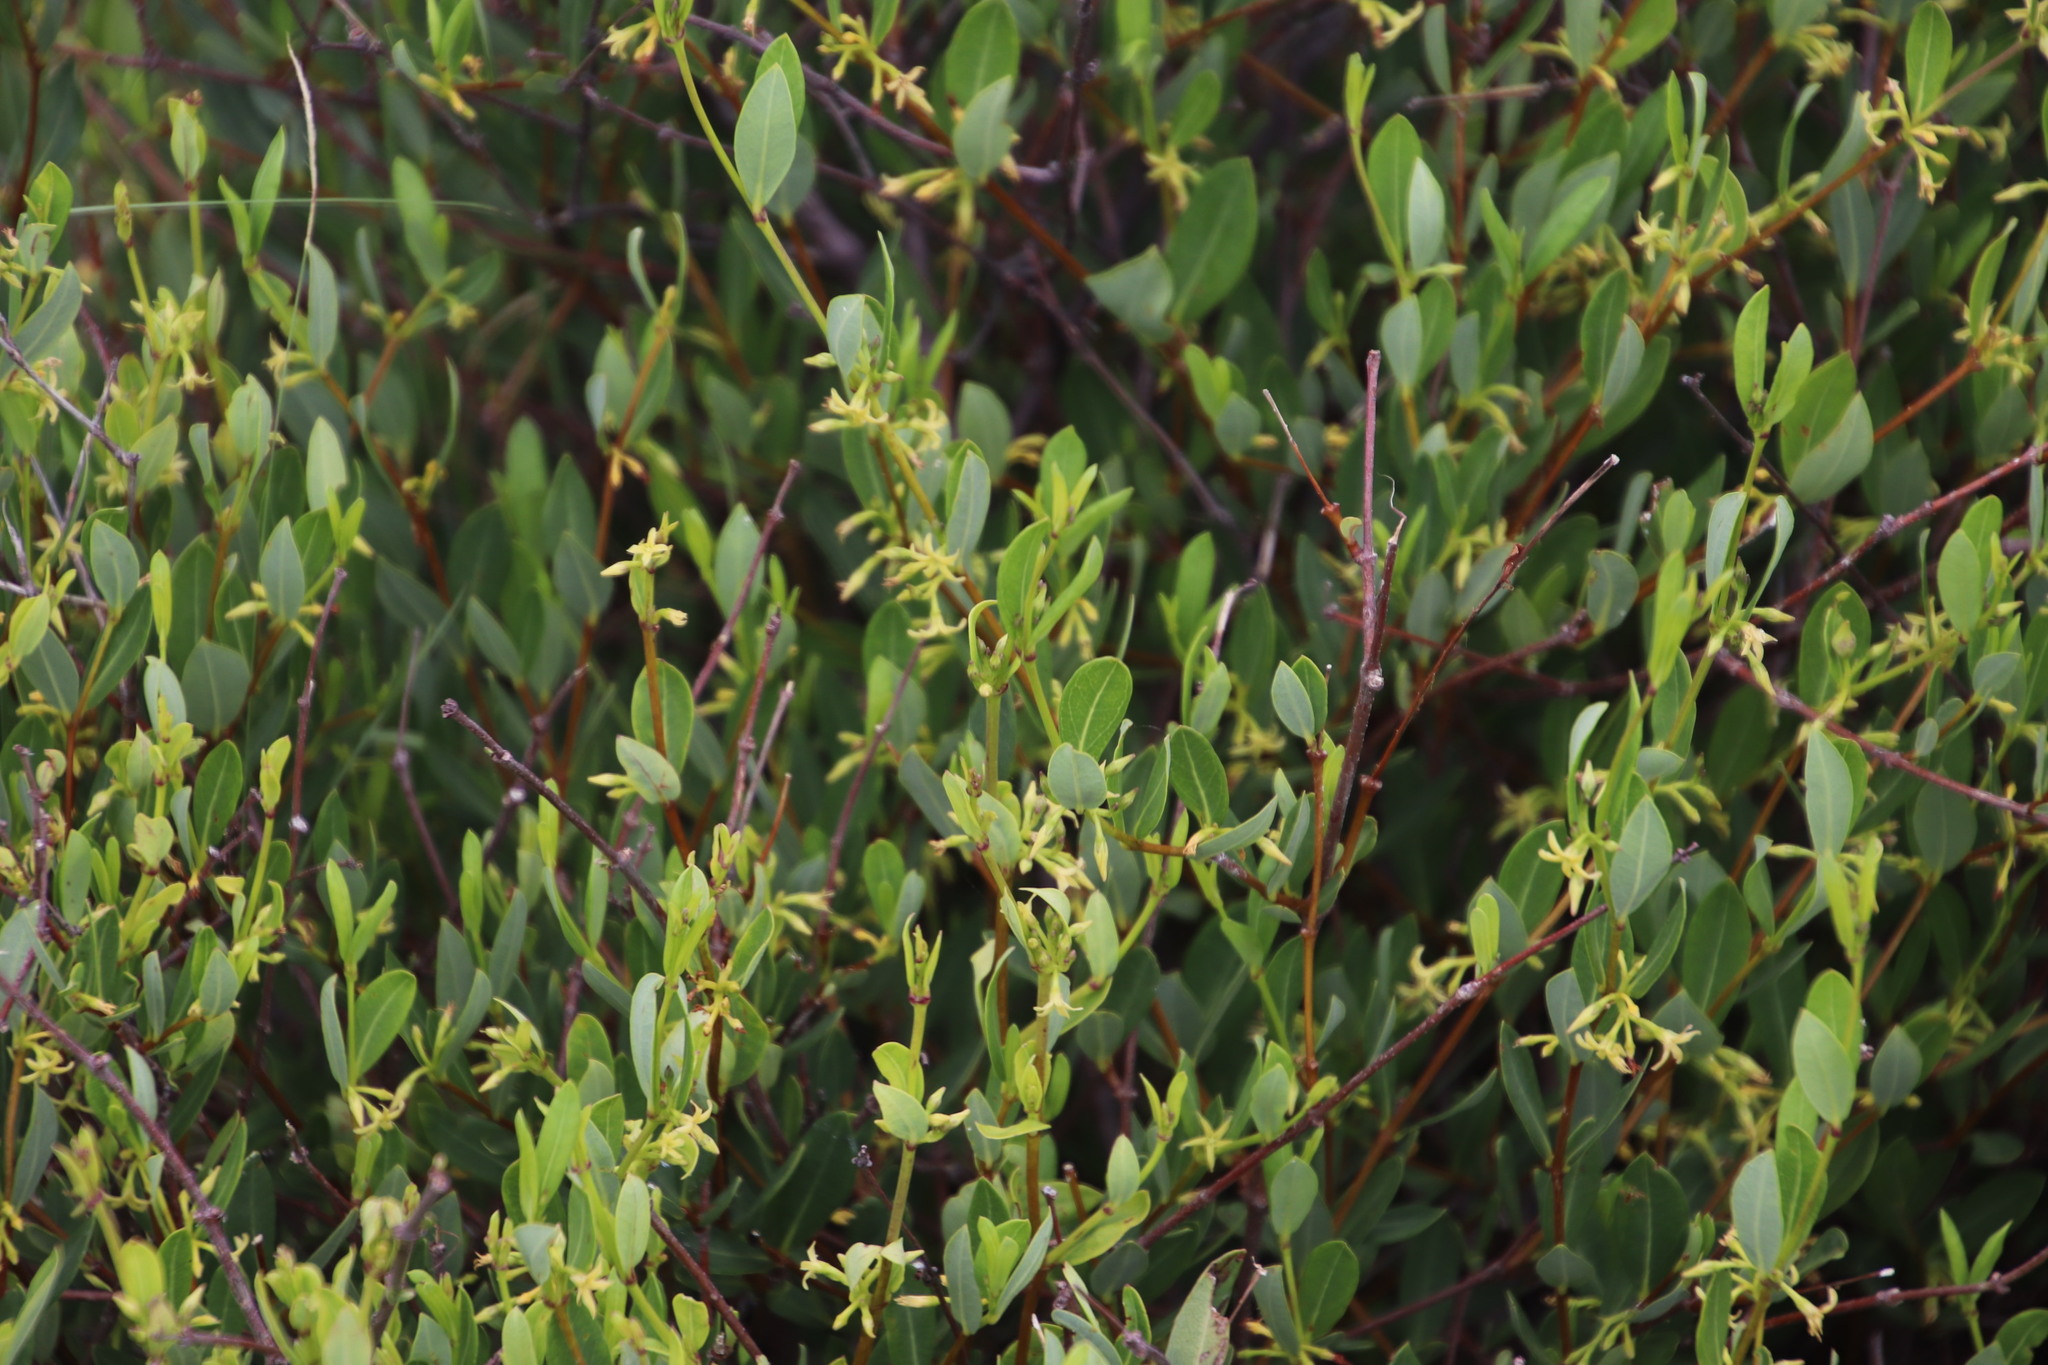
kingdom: Plantae
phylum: Tracheophyta
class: Magnoliopsida
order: Gentianales
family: Apocynaceae
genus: Cryptolepis
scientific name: Cryptolepis oblongifolia
